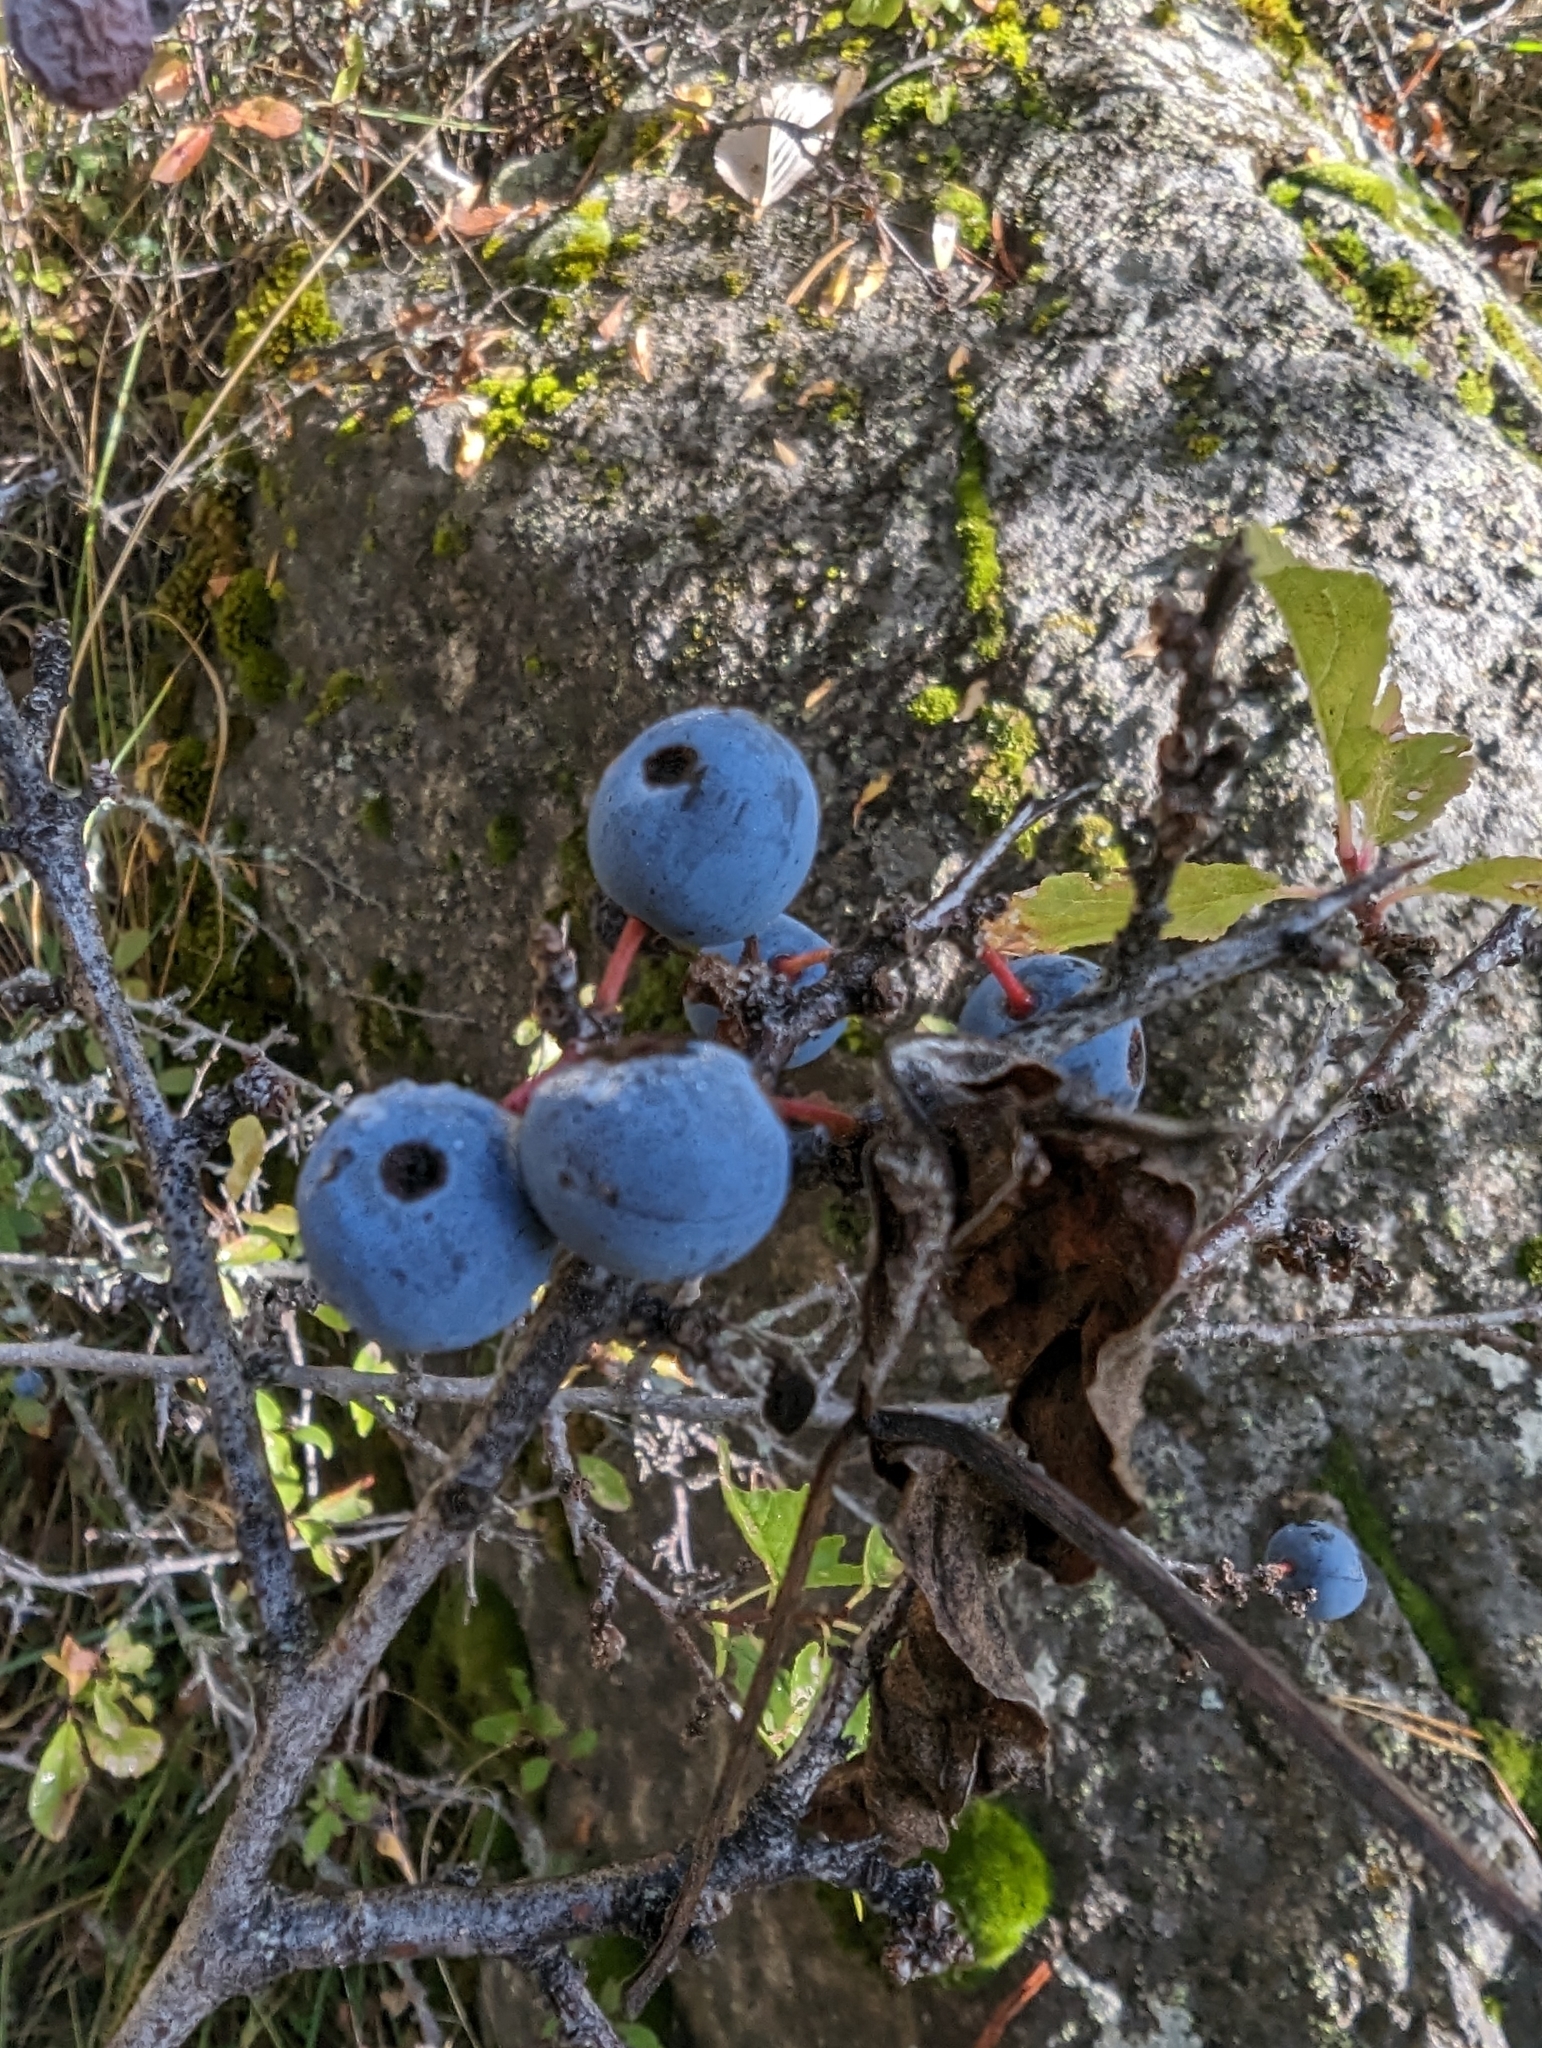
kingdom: Plantae
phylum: Tracheophyta
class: Magnoliopsida
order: Rosales
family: Rosaceae
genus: Prunus
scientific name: Prunus spinosa
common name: Blackthorn
